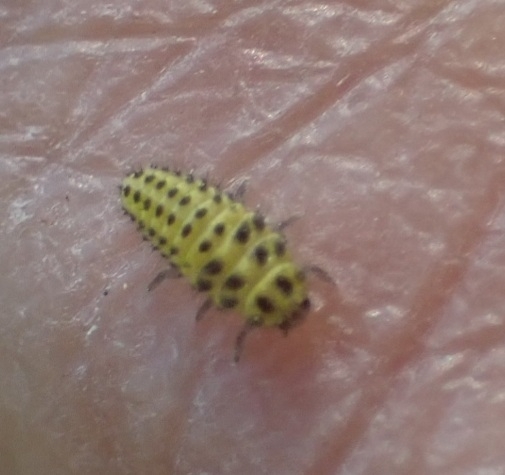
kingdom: Animalia
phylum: Arthropoda
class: Insecta
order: Coleoptera
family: Coccinellidae
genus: Psyllobora
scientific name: Psyllobora vigintiduopunctata
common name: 22-spot ladybird
